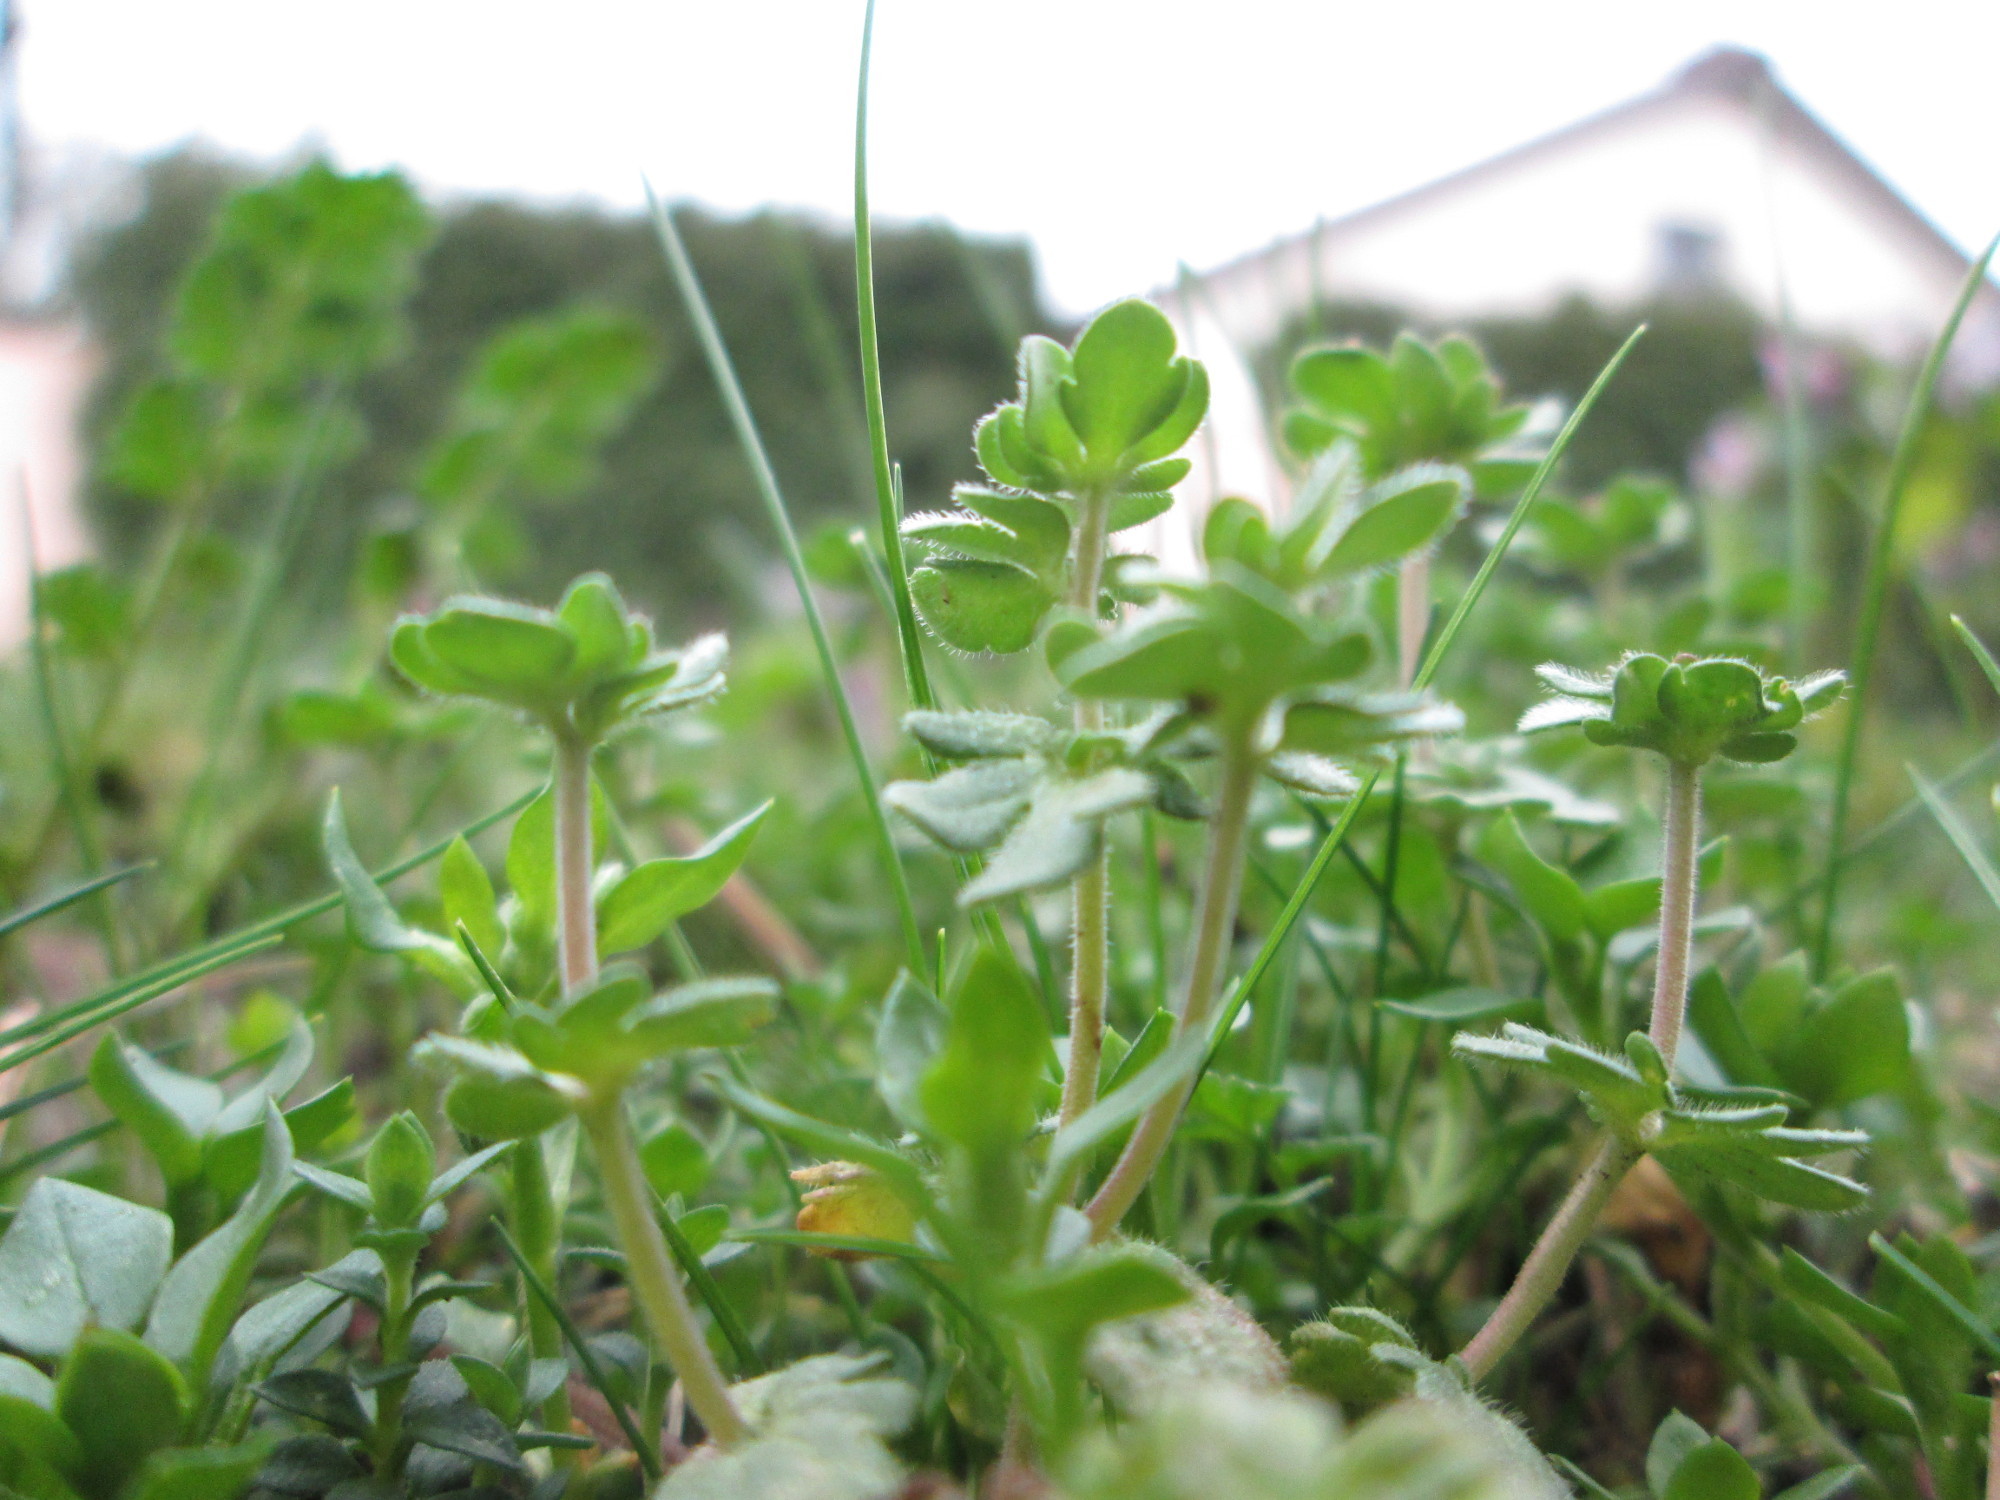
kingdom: Plantae
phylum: Tracheophyta
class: Magnoliopsida
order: Lamiales
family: Plantaginaceae
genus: Veronica
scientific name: Veronica triphyllos
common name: Fingered speedwell
